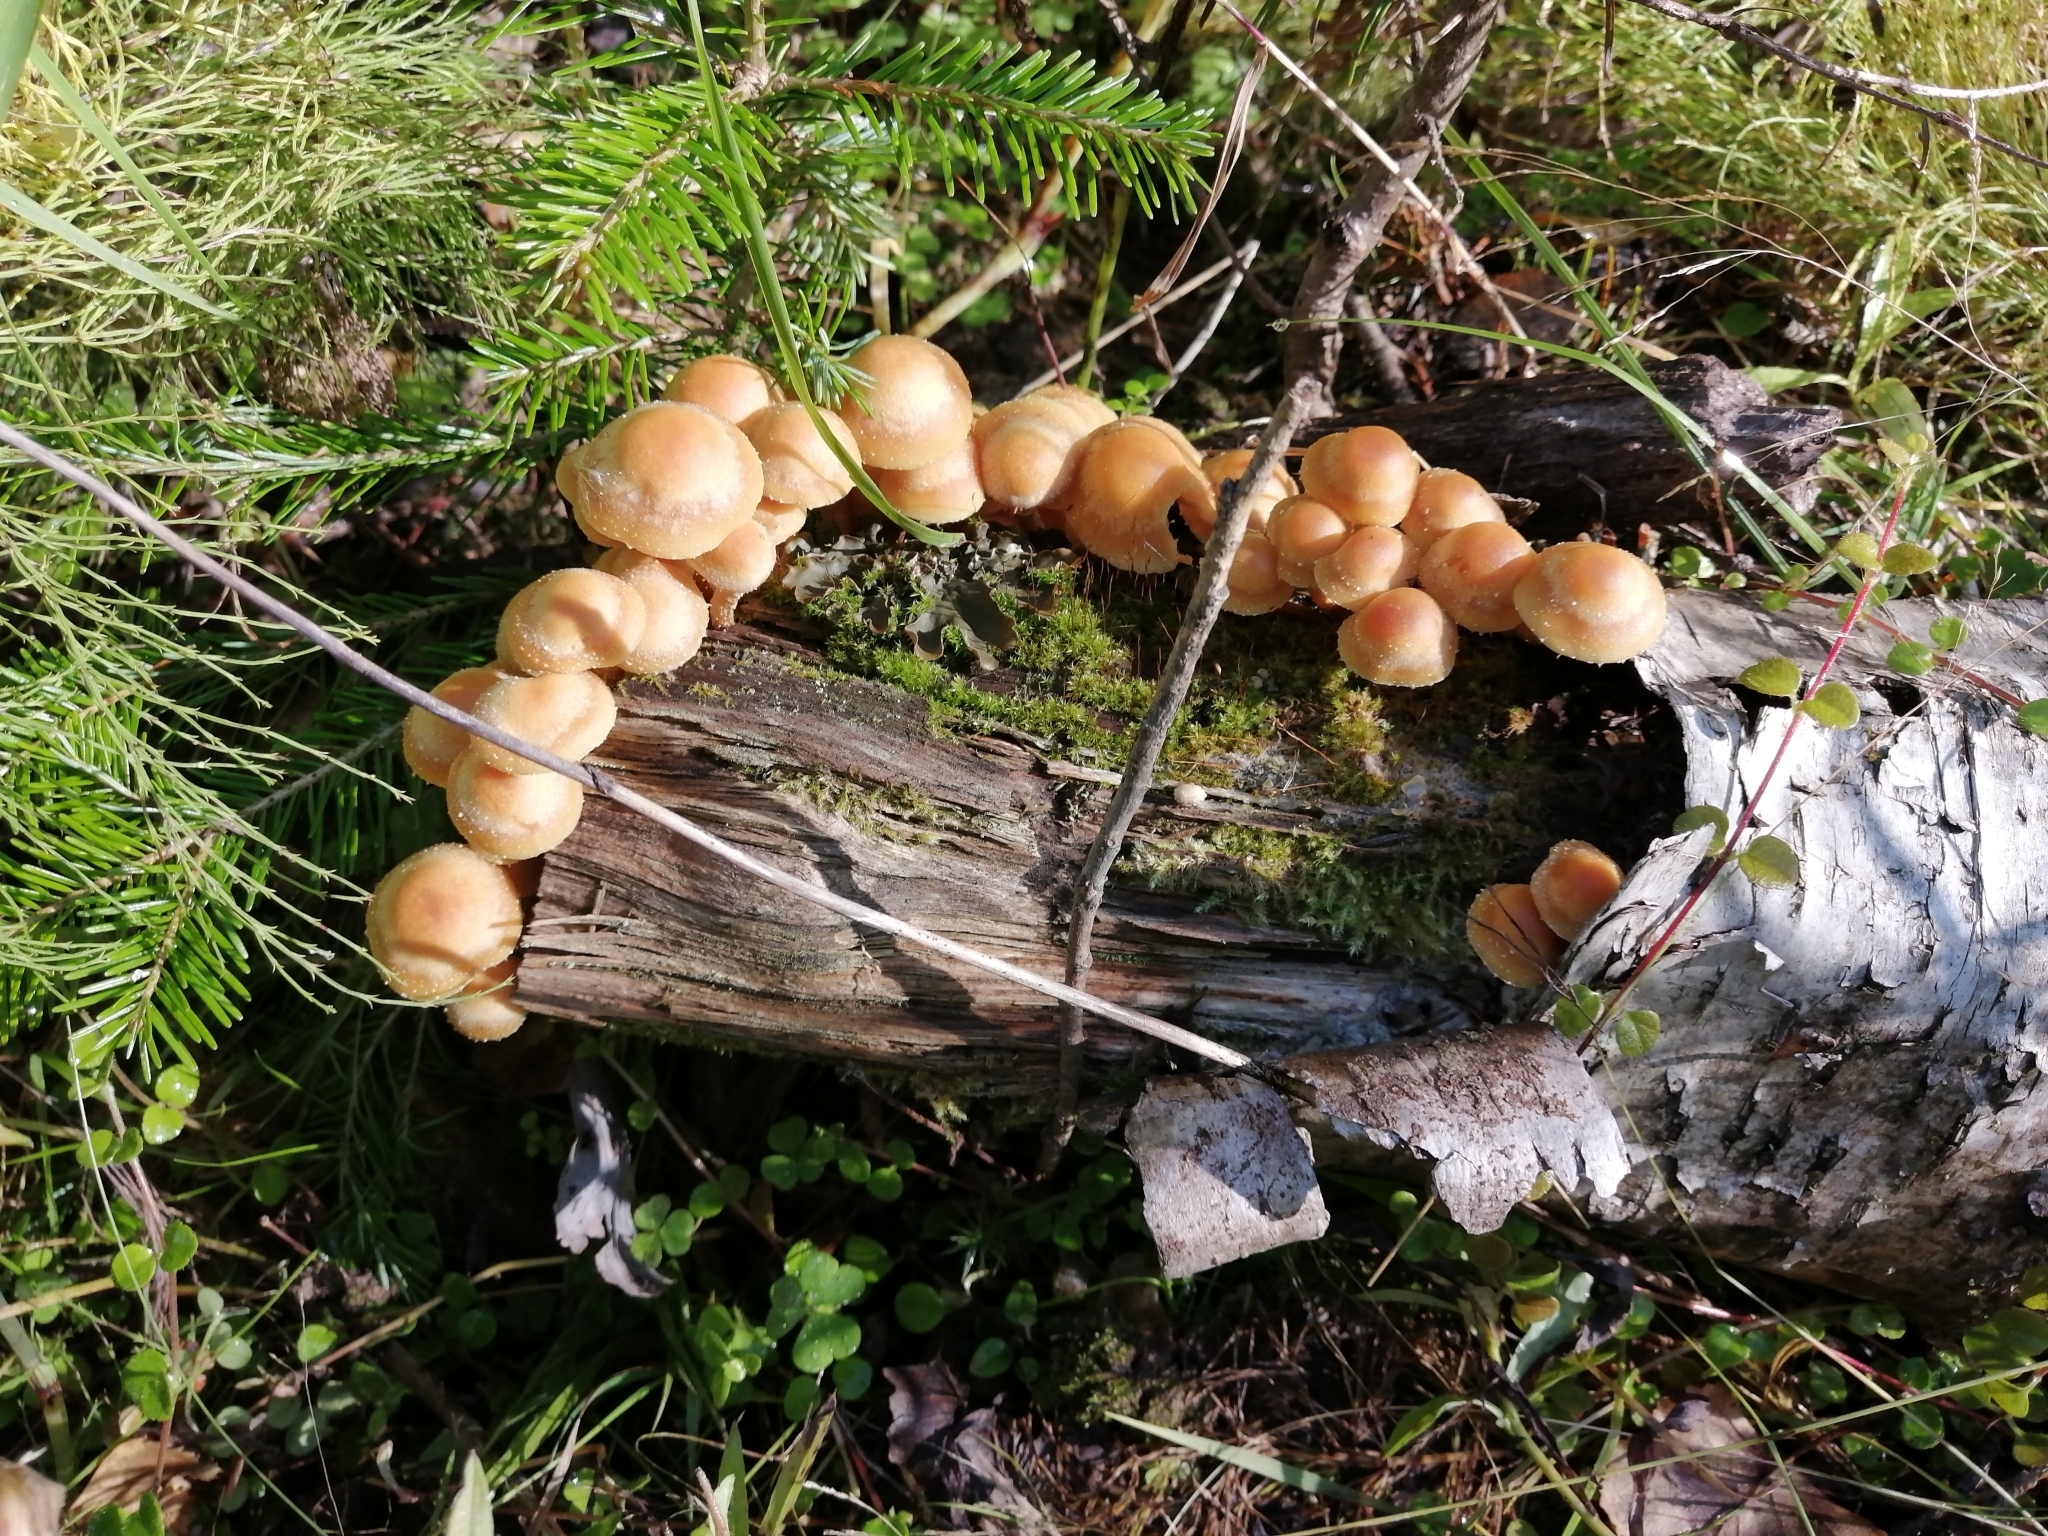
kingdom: Fungi
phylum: Basidiomycota
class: Agaricomycetes
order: Agaricales
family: Strophariaceae
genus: Kuehneromyces
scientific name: Kuehneromyces mutabilis
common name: Sheathed woodtuft
